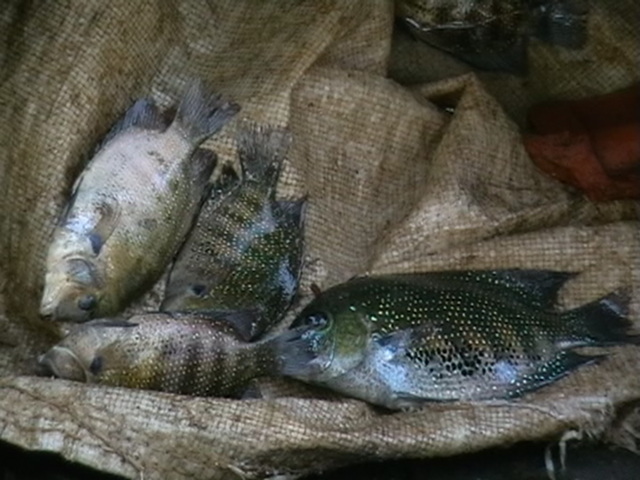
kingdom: Animalia
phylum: Chordata
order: Perciformes
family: Cichlidae
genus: Etroplus
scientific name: Etroplus suratensis
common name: Green chromide
